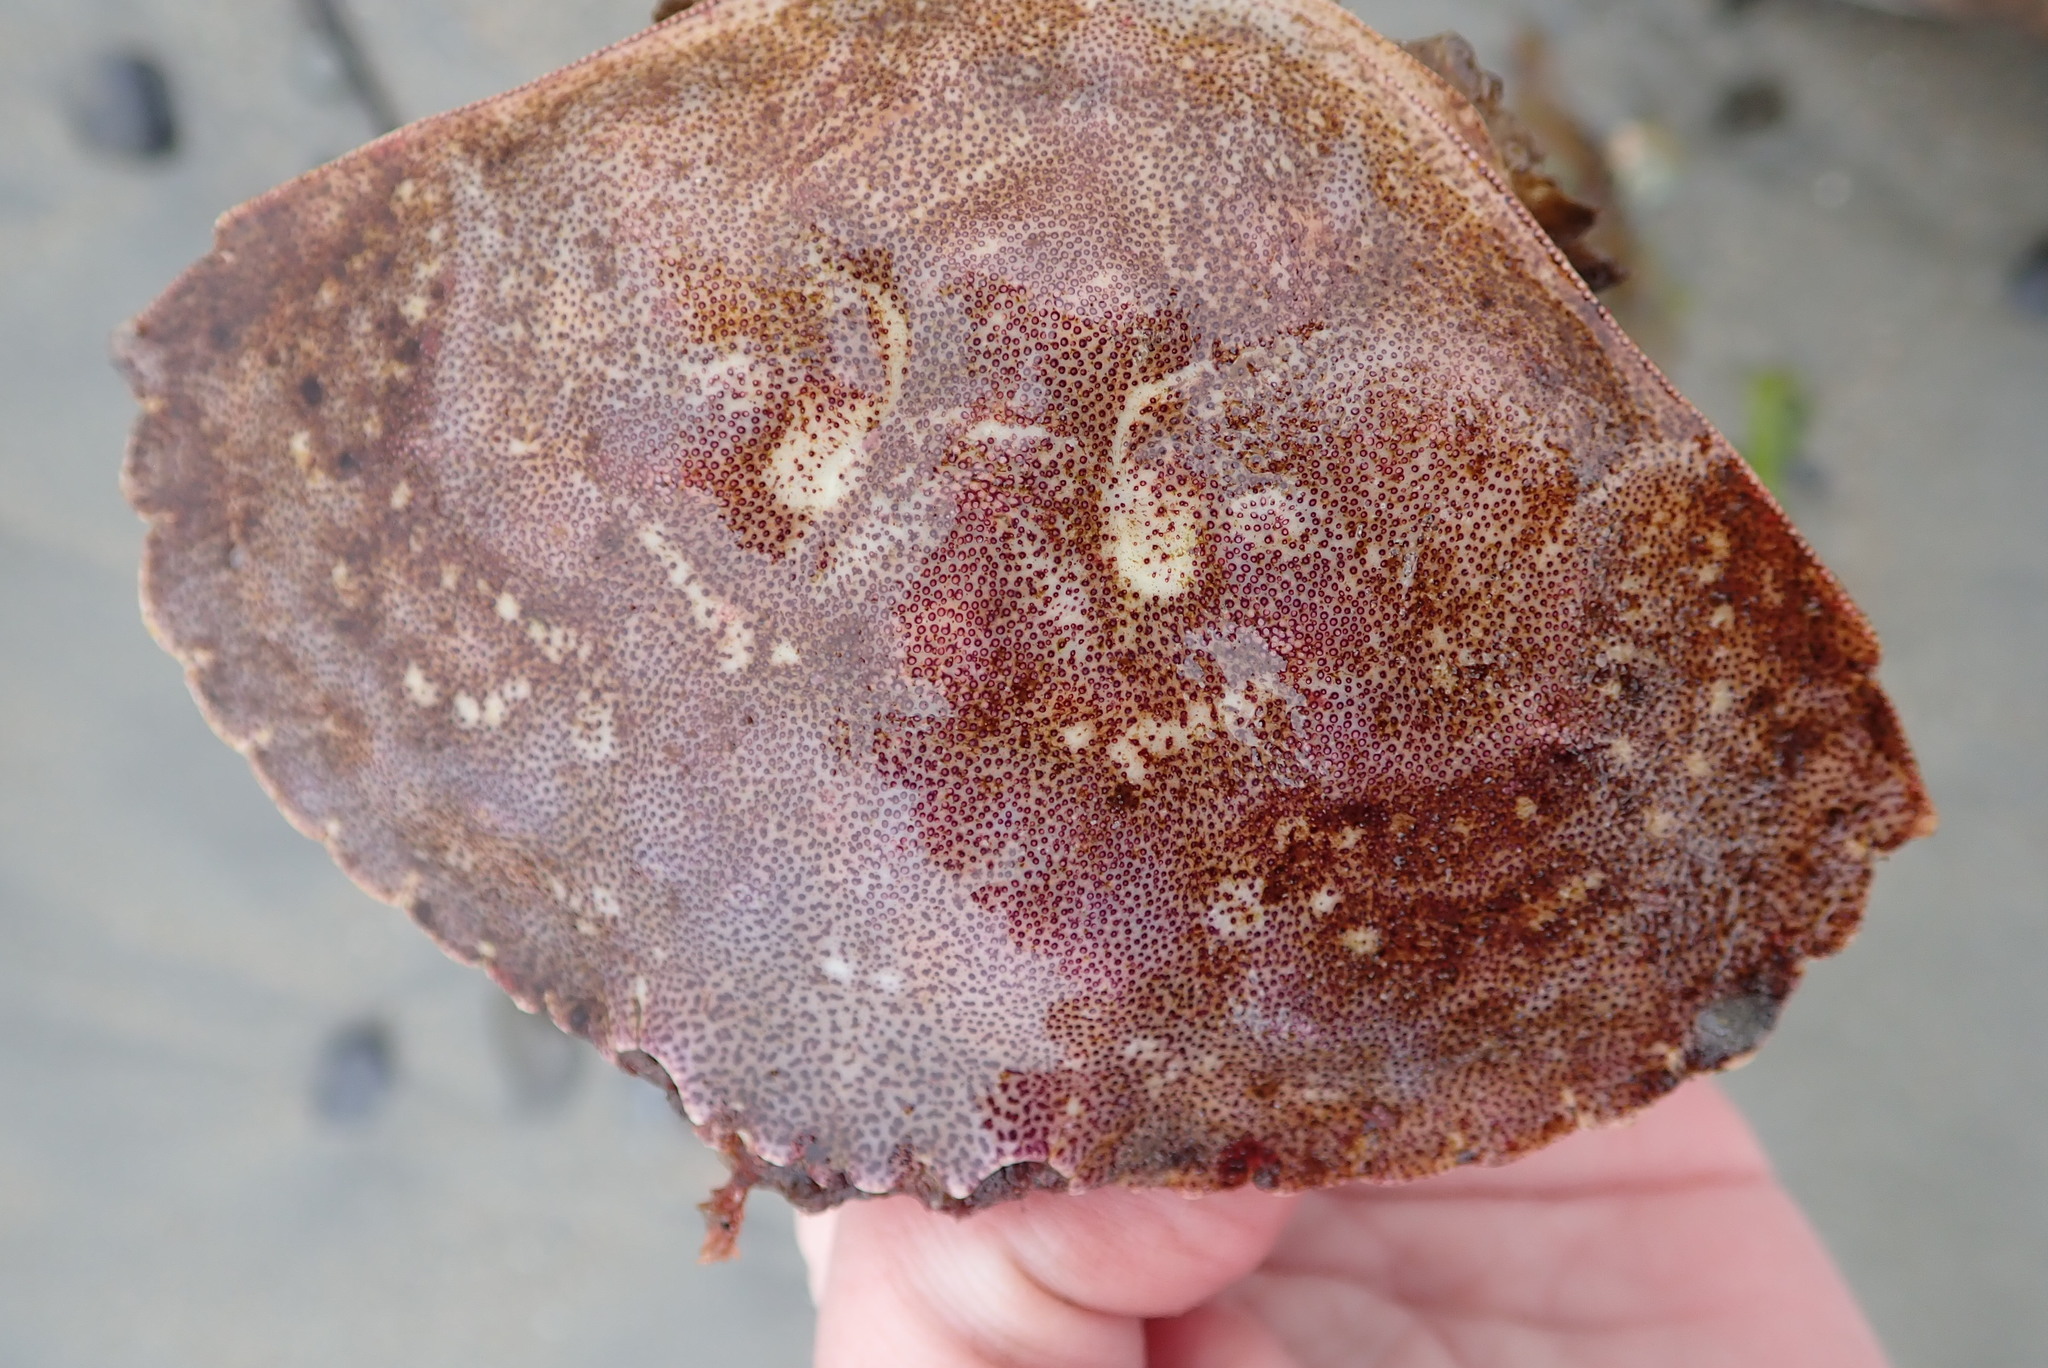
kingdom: Animalia
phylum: Arthropoda
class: Malacostraca
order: Decapoda
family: Cancridae
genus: Cancer
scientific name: Cancer irroratus
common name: Atlantic rock crab
